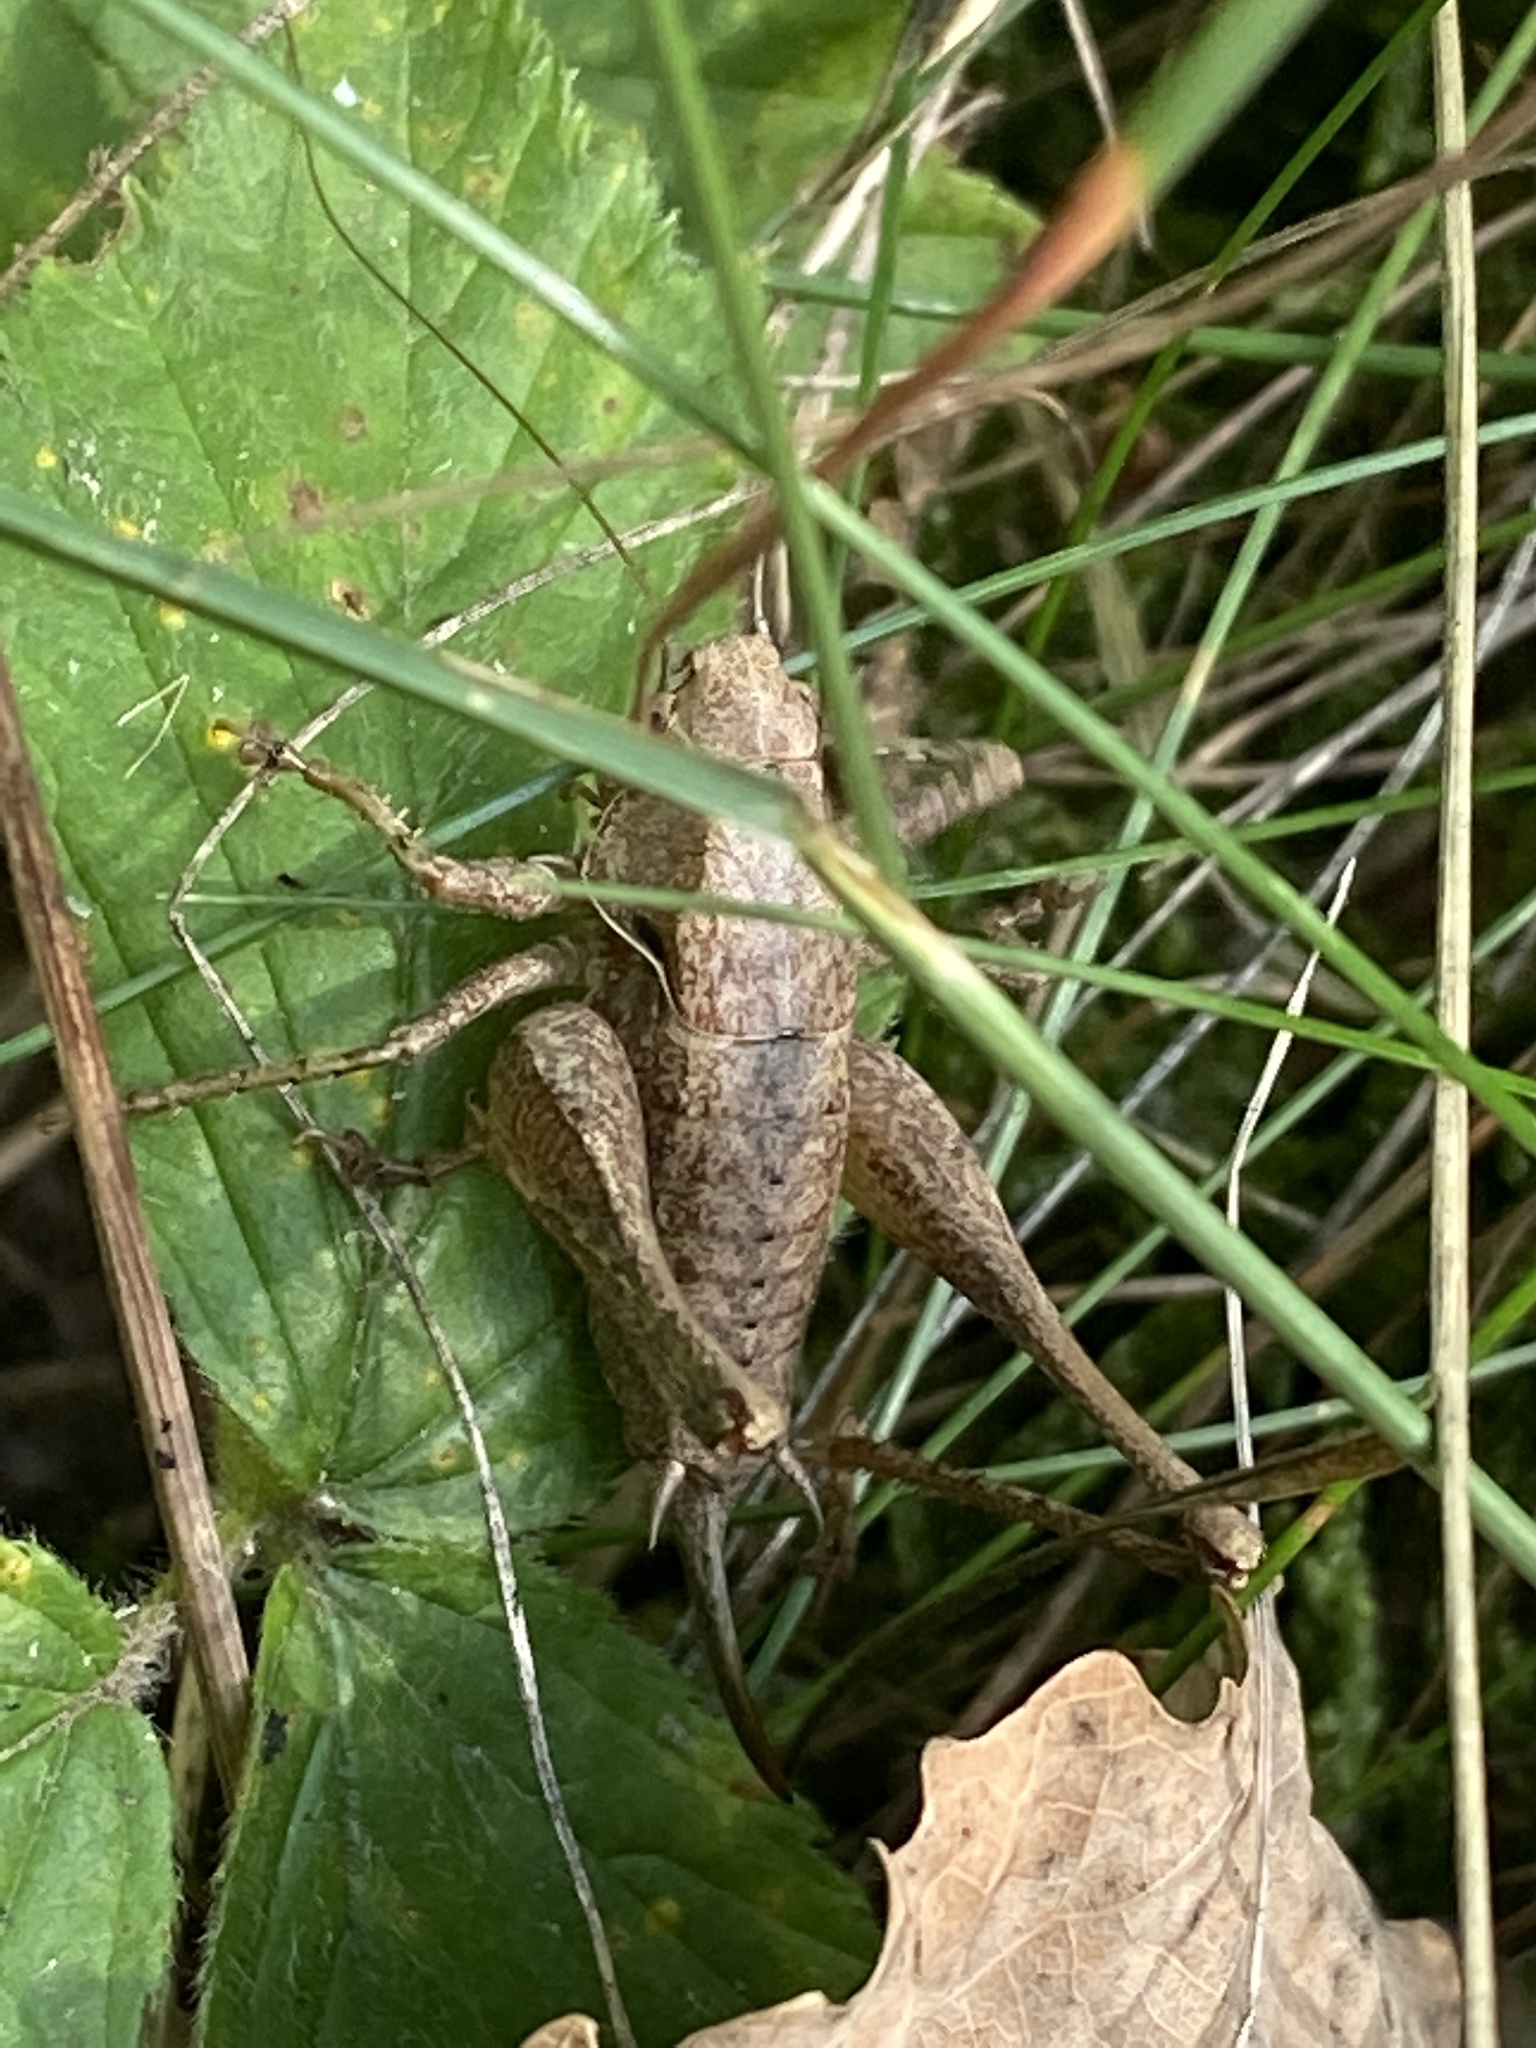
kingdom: Animalia
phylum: Arthropoda
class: Insecta
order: Orthoptera
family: Tettigoniidae
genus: Pholidoptera
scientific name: Pholidoptera griseoaptera
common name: Dark bush-cricket
